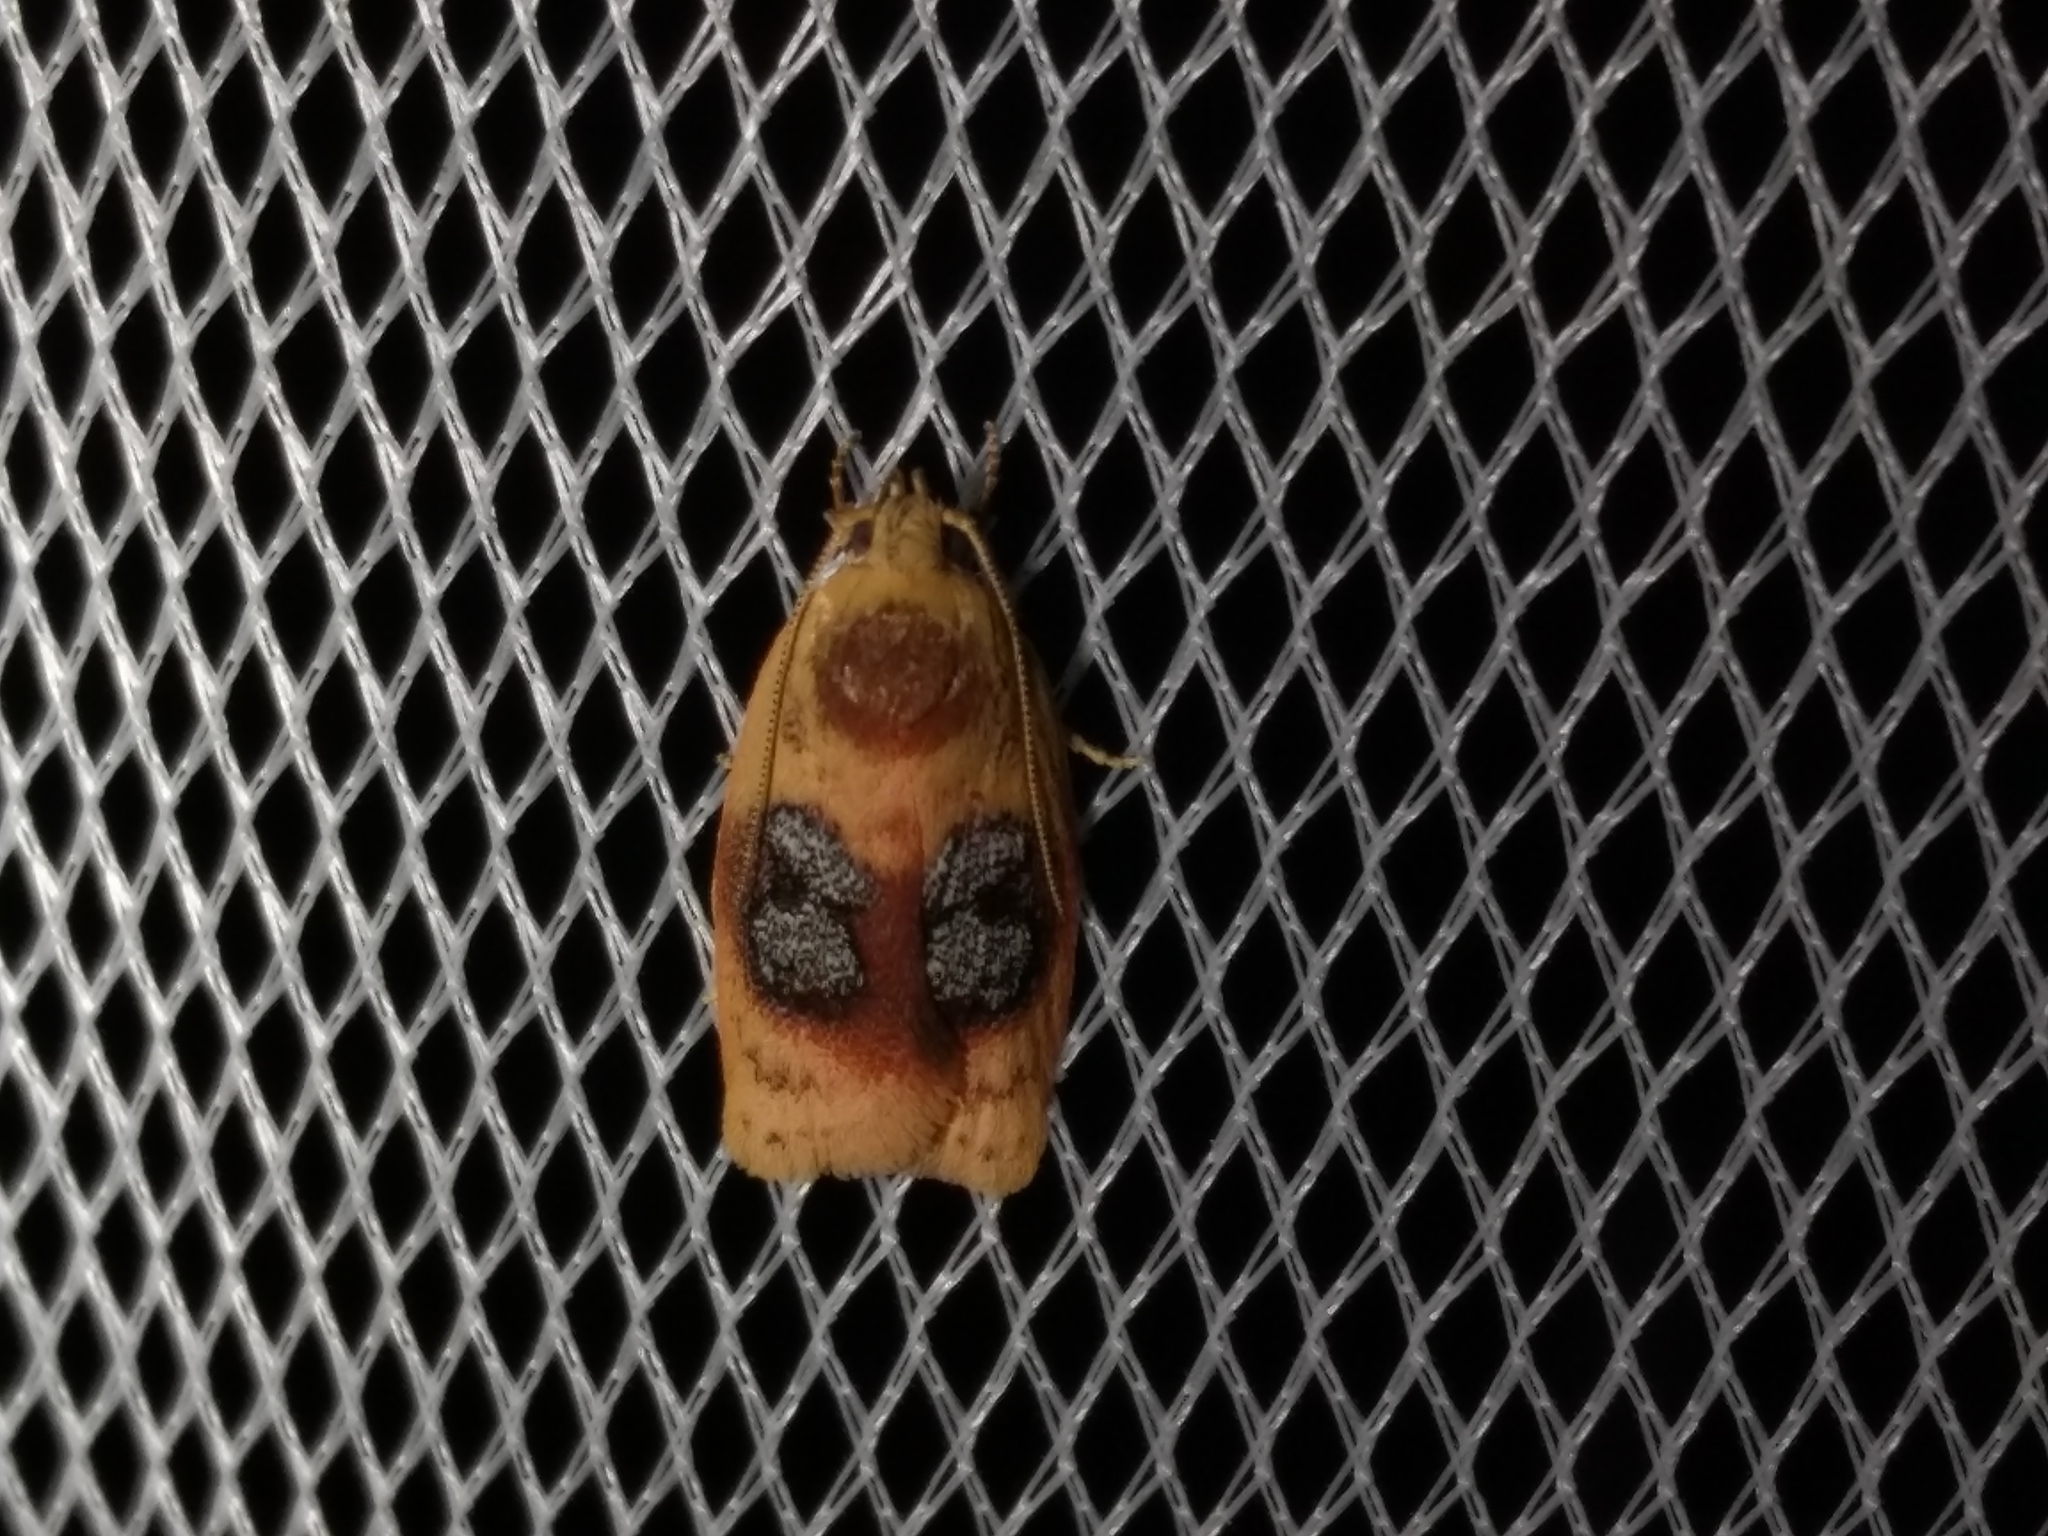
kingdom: Animalia
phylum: Arthropoda
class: Insecta
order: Lepidoptera
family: Oecophoridae
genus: Garrha
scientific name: Garrha ocellifera
